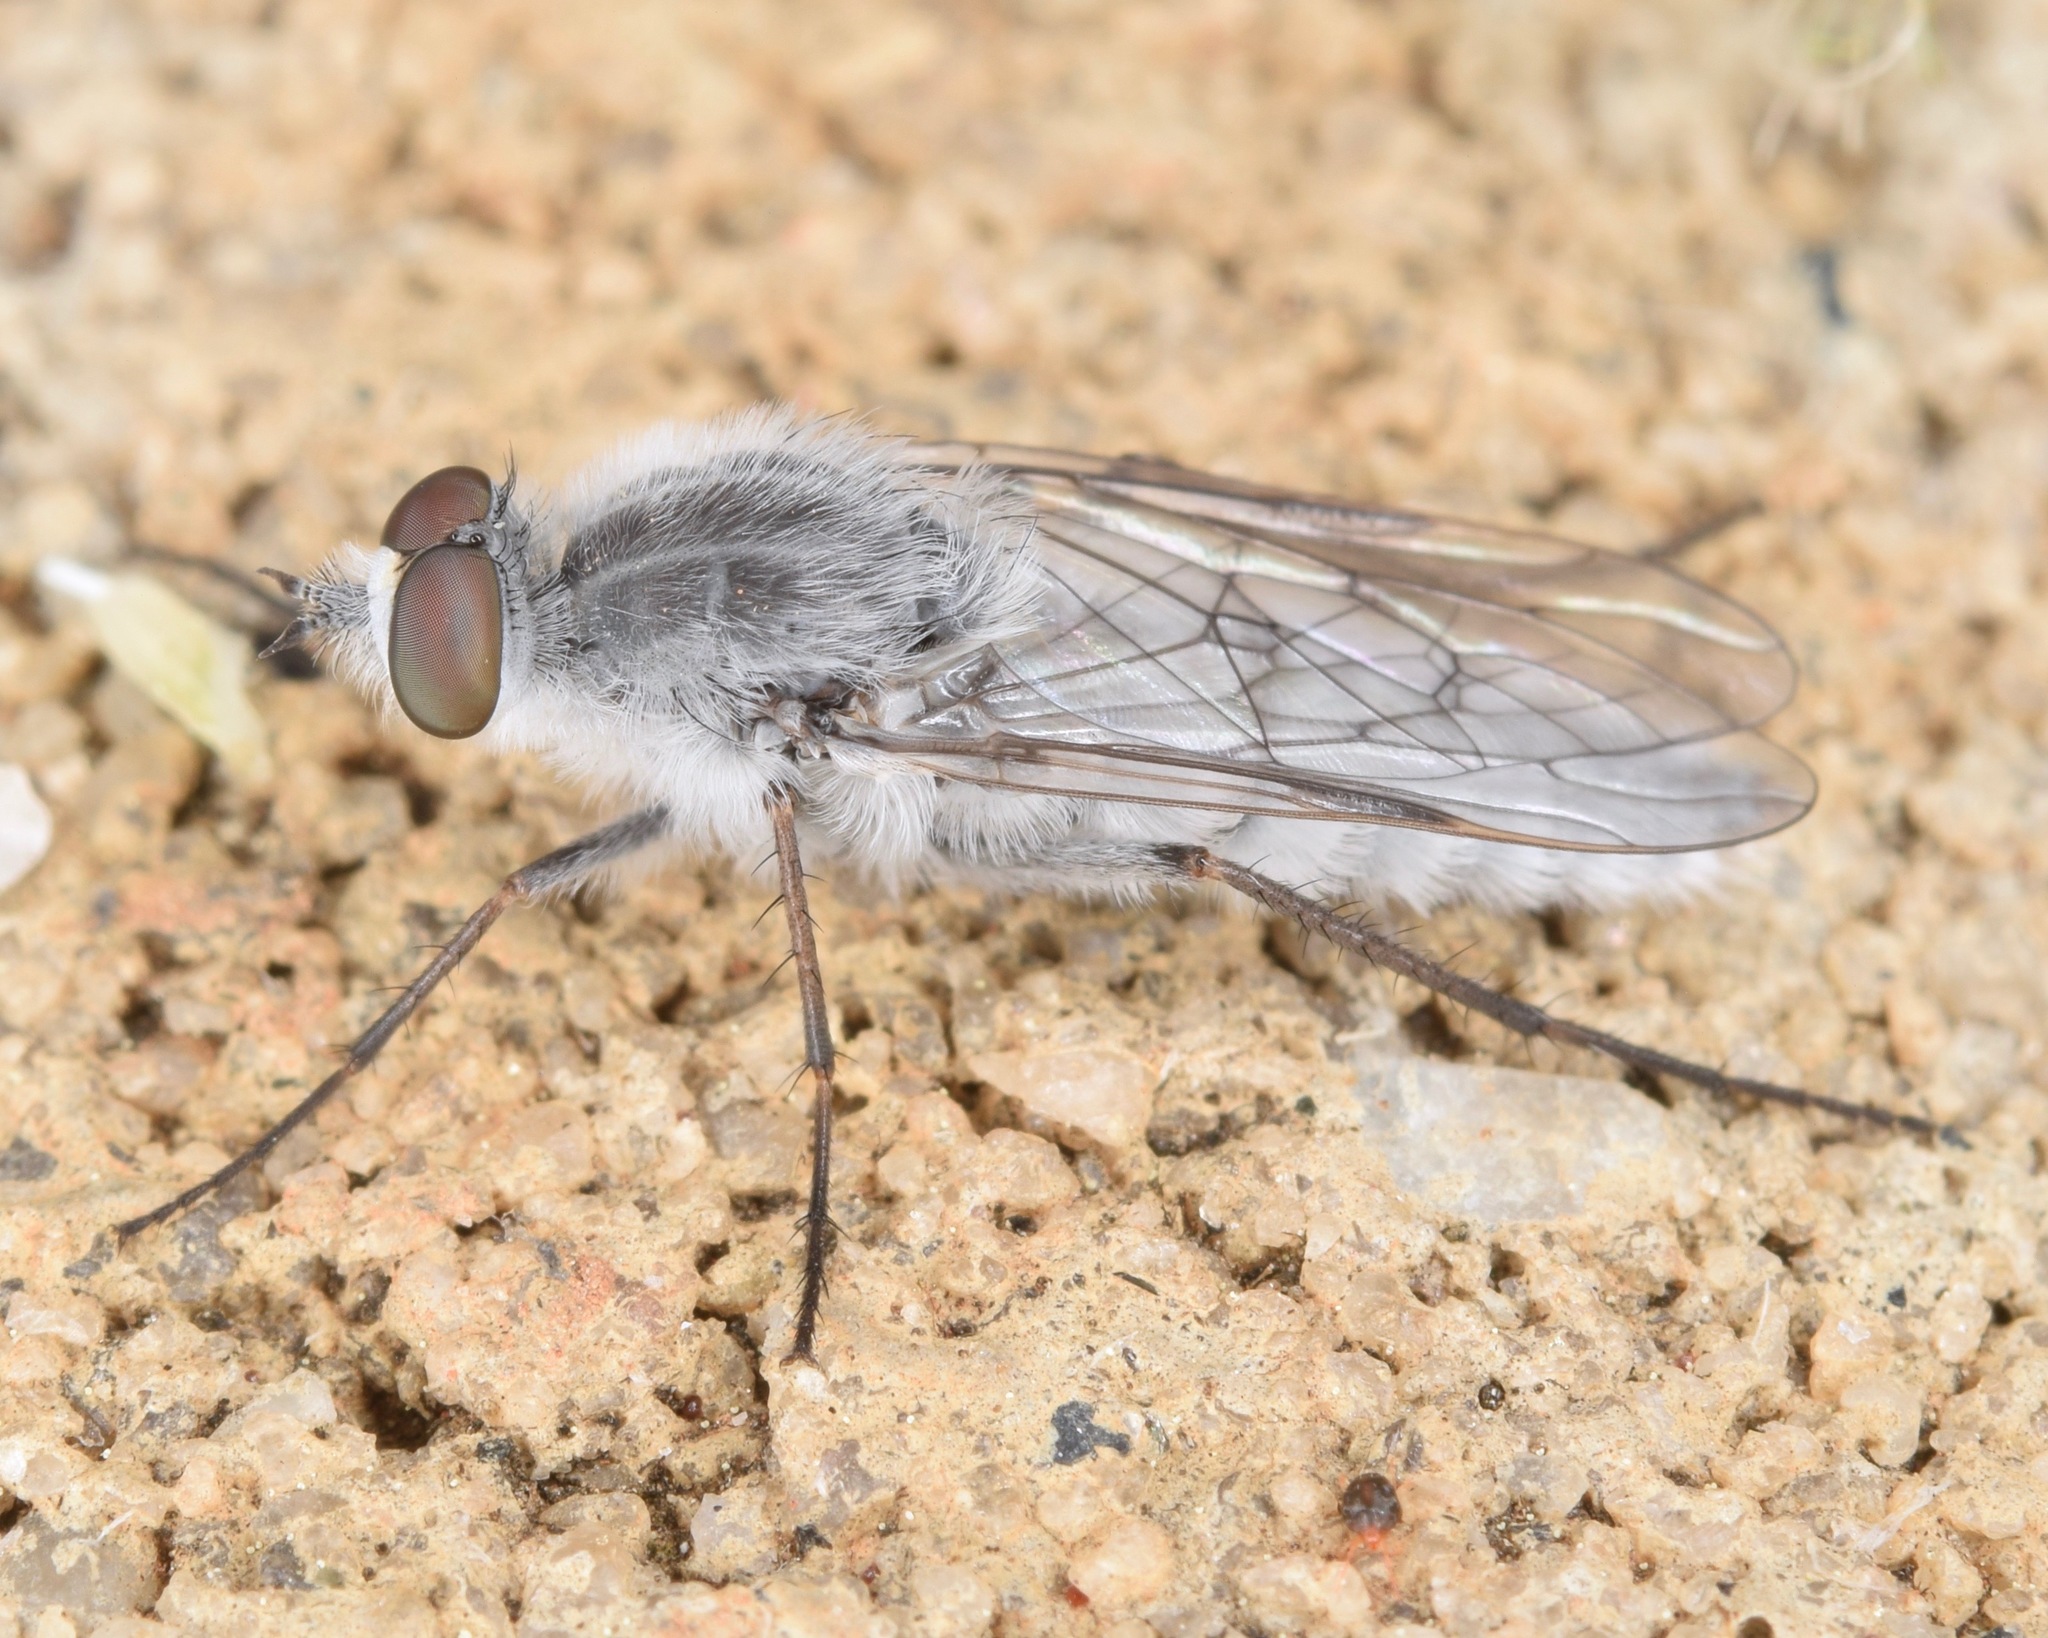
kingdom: Animalia
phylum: Arthropoda
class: Insecta
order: Diptera
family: Therevidae
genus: Pandivirilia
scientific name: Pandivirilia
